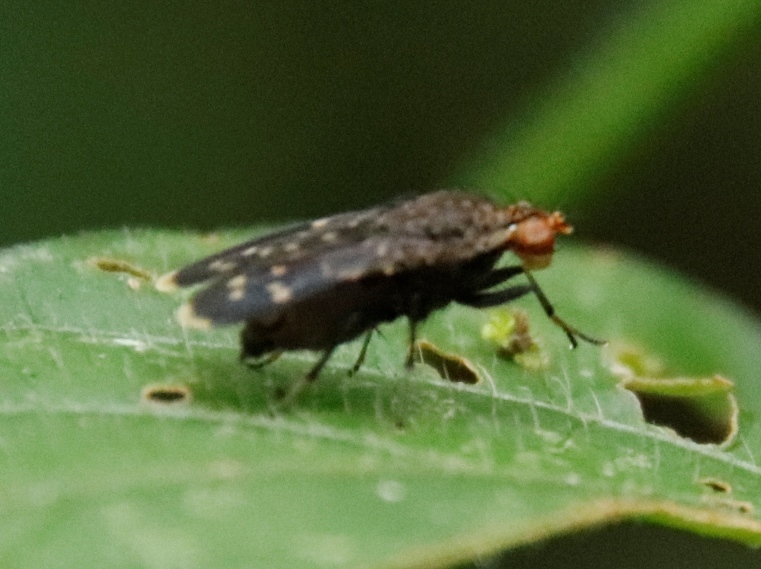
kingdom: Animalia
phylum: Arthropoda
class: Insecta
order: Diptera
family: Heleomyzidae
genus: Suillia
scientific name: Suillia picta
